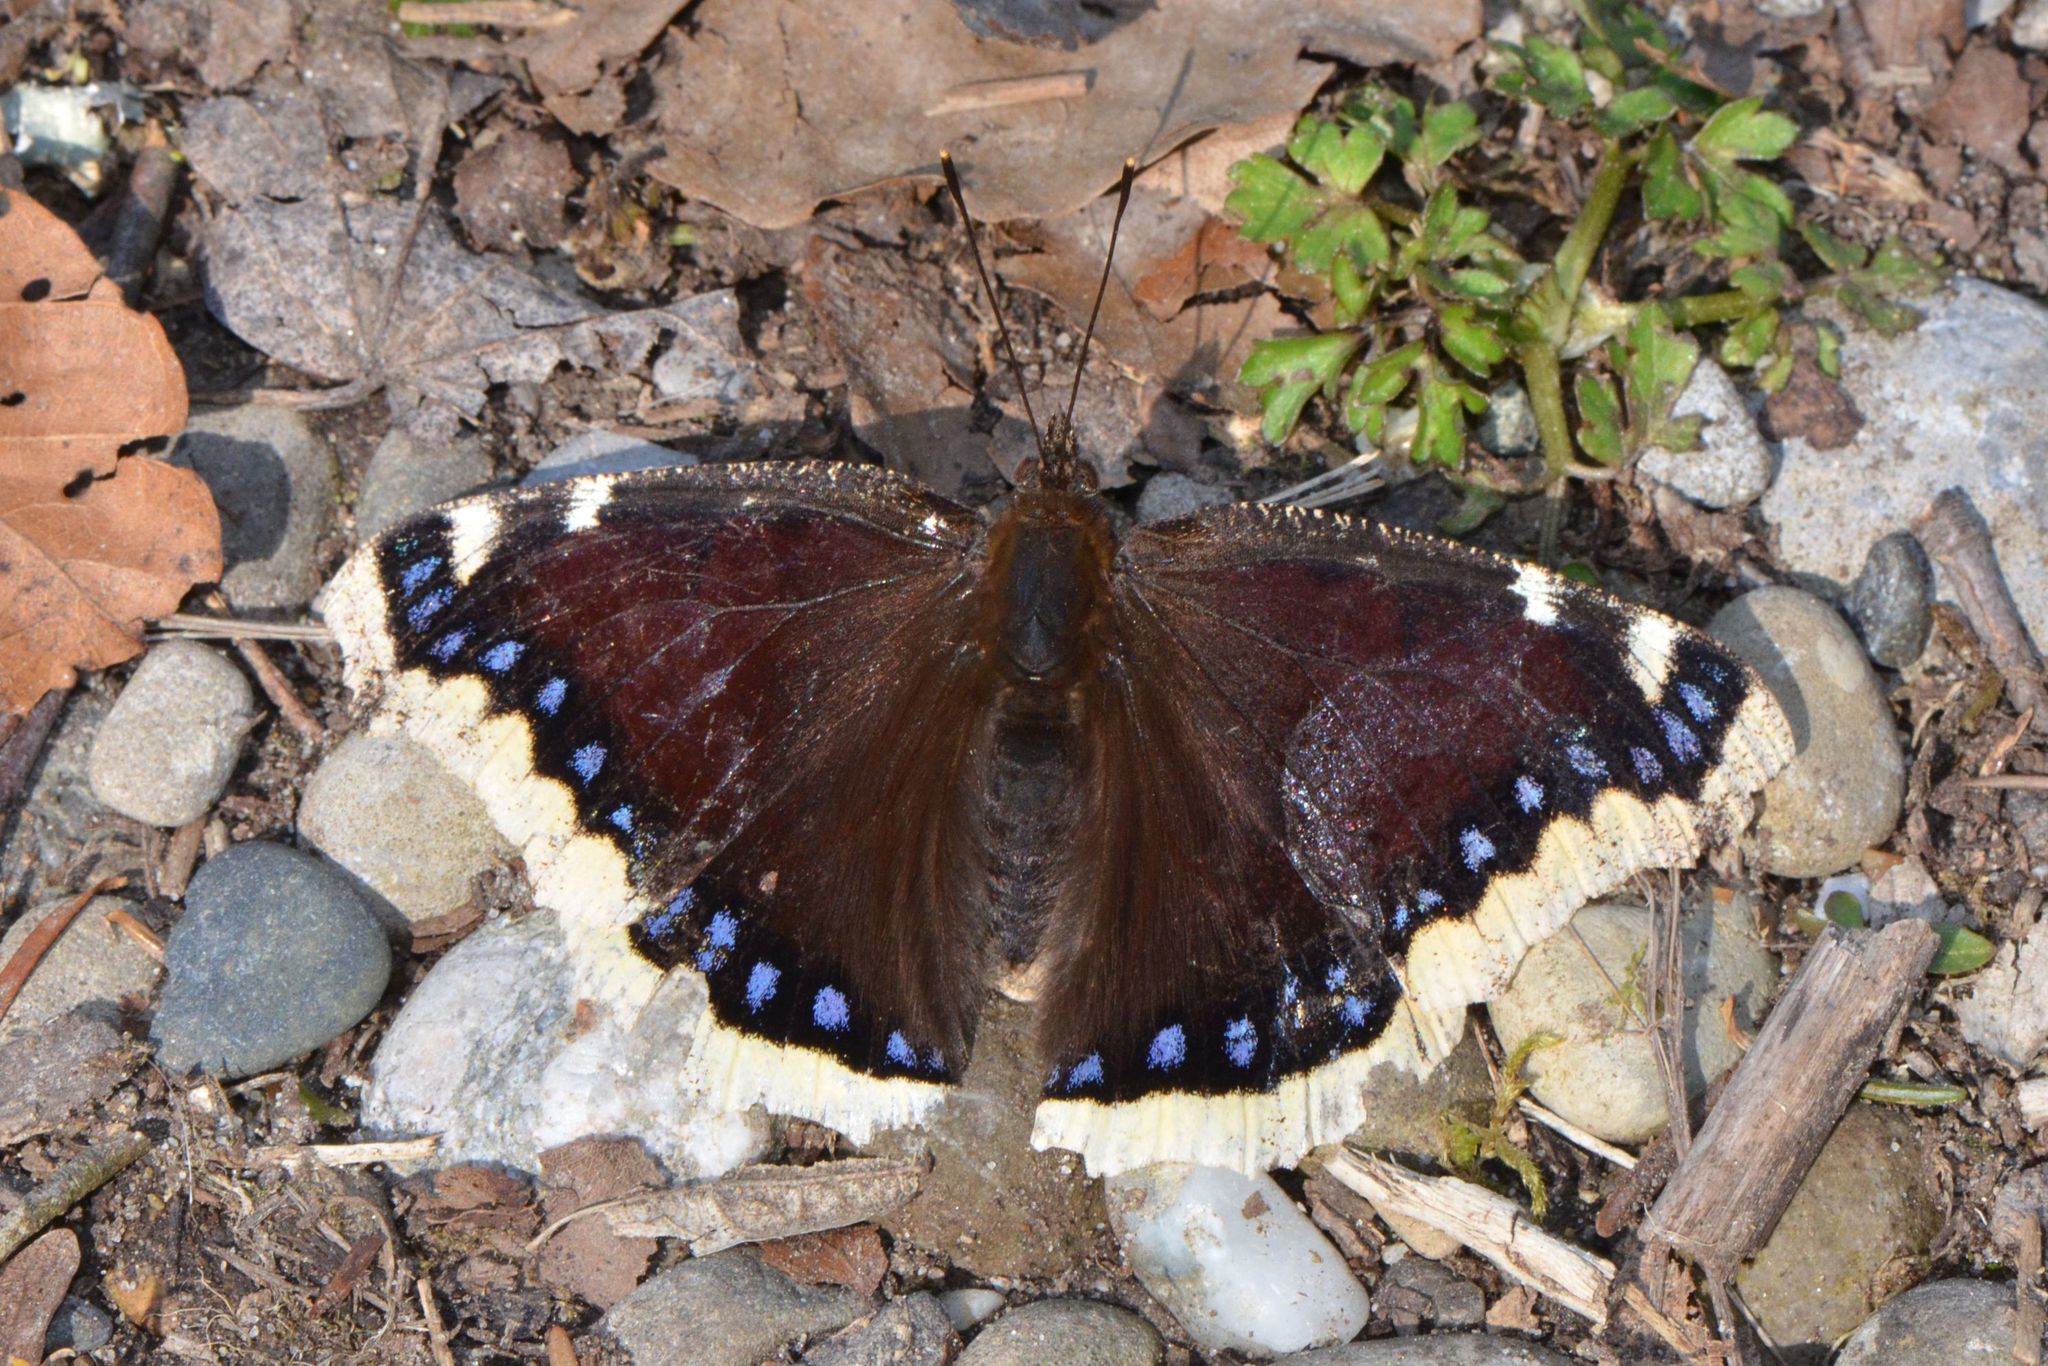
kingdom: Animalia
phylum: Arthropoda
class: Insecta
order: Lepidoptera
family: Nymphalidae
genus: Nymphalis
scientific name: Nymphalis antiopa
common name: Camberwell beauty
